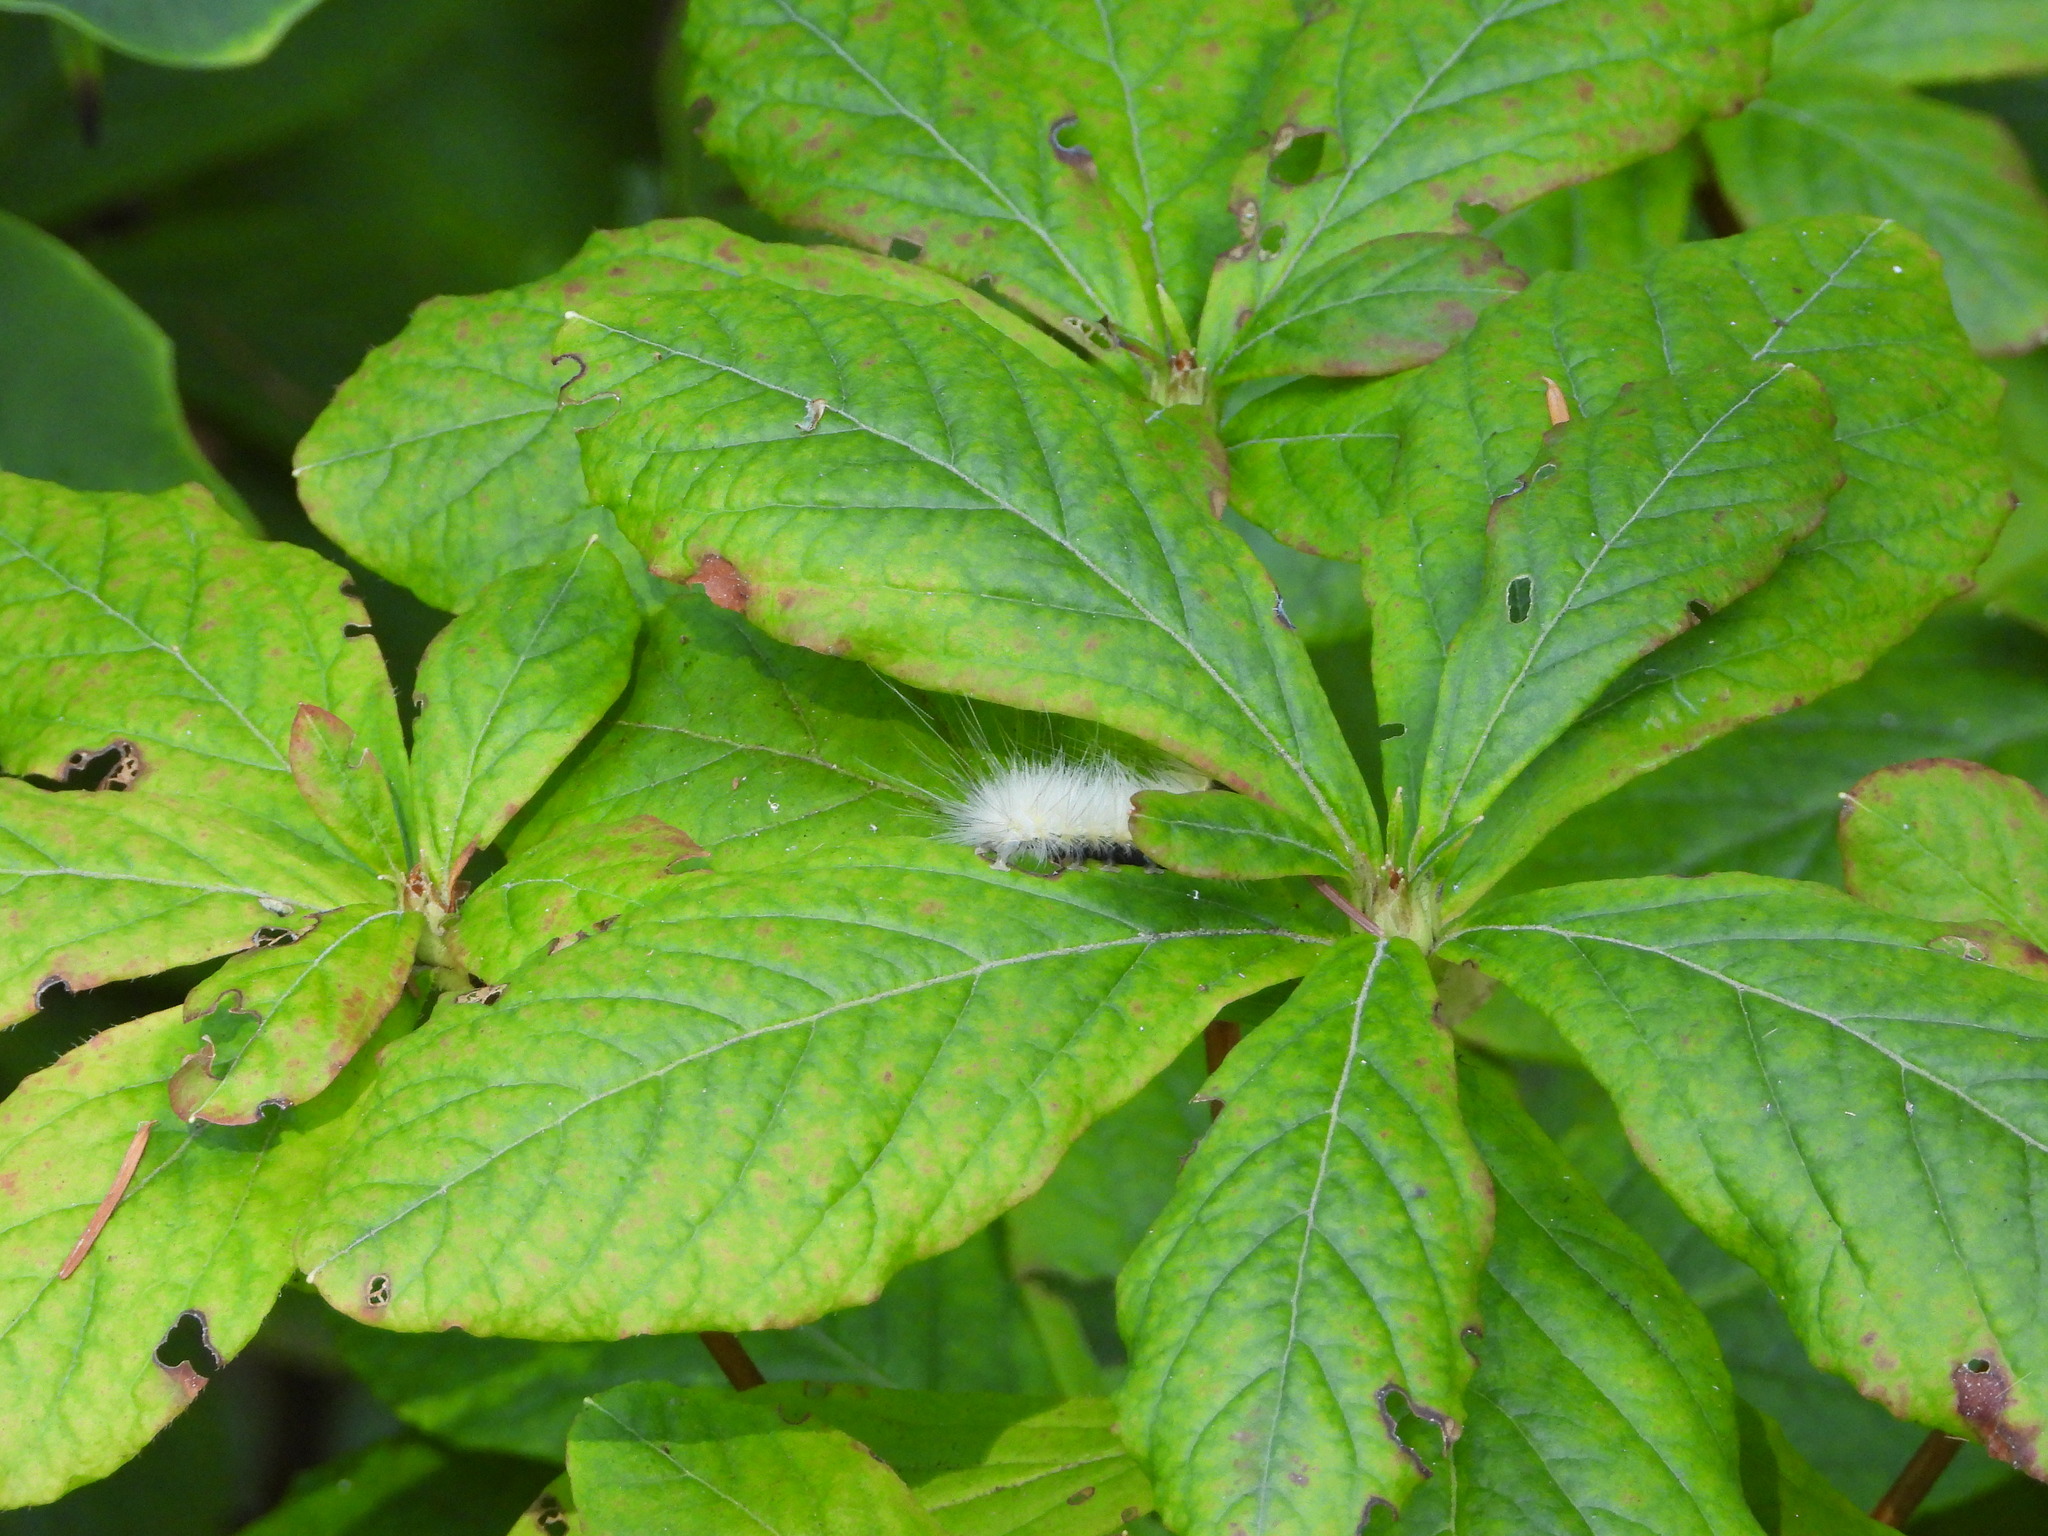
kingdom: Animalia
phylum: Arthropoda
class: Insecta
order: Lepidoptera
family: Erebidae
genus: Spilosoma
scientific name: Spilosoma virginica
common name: Virginia tiger moth
